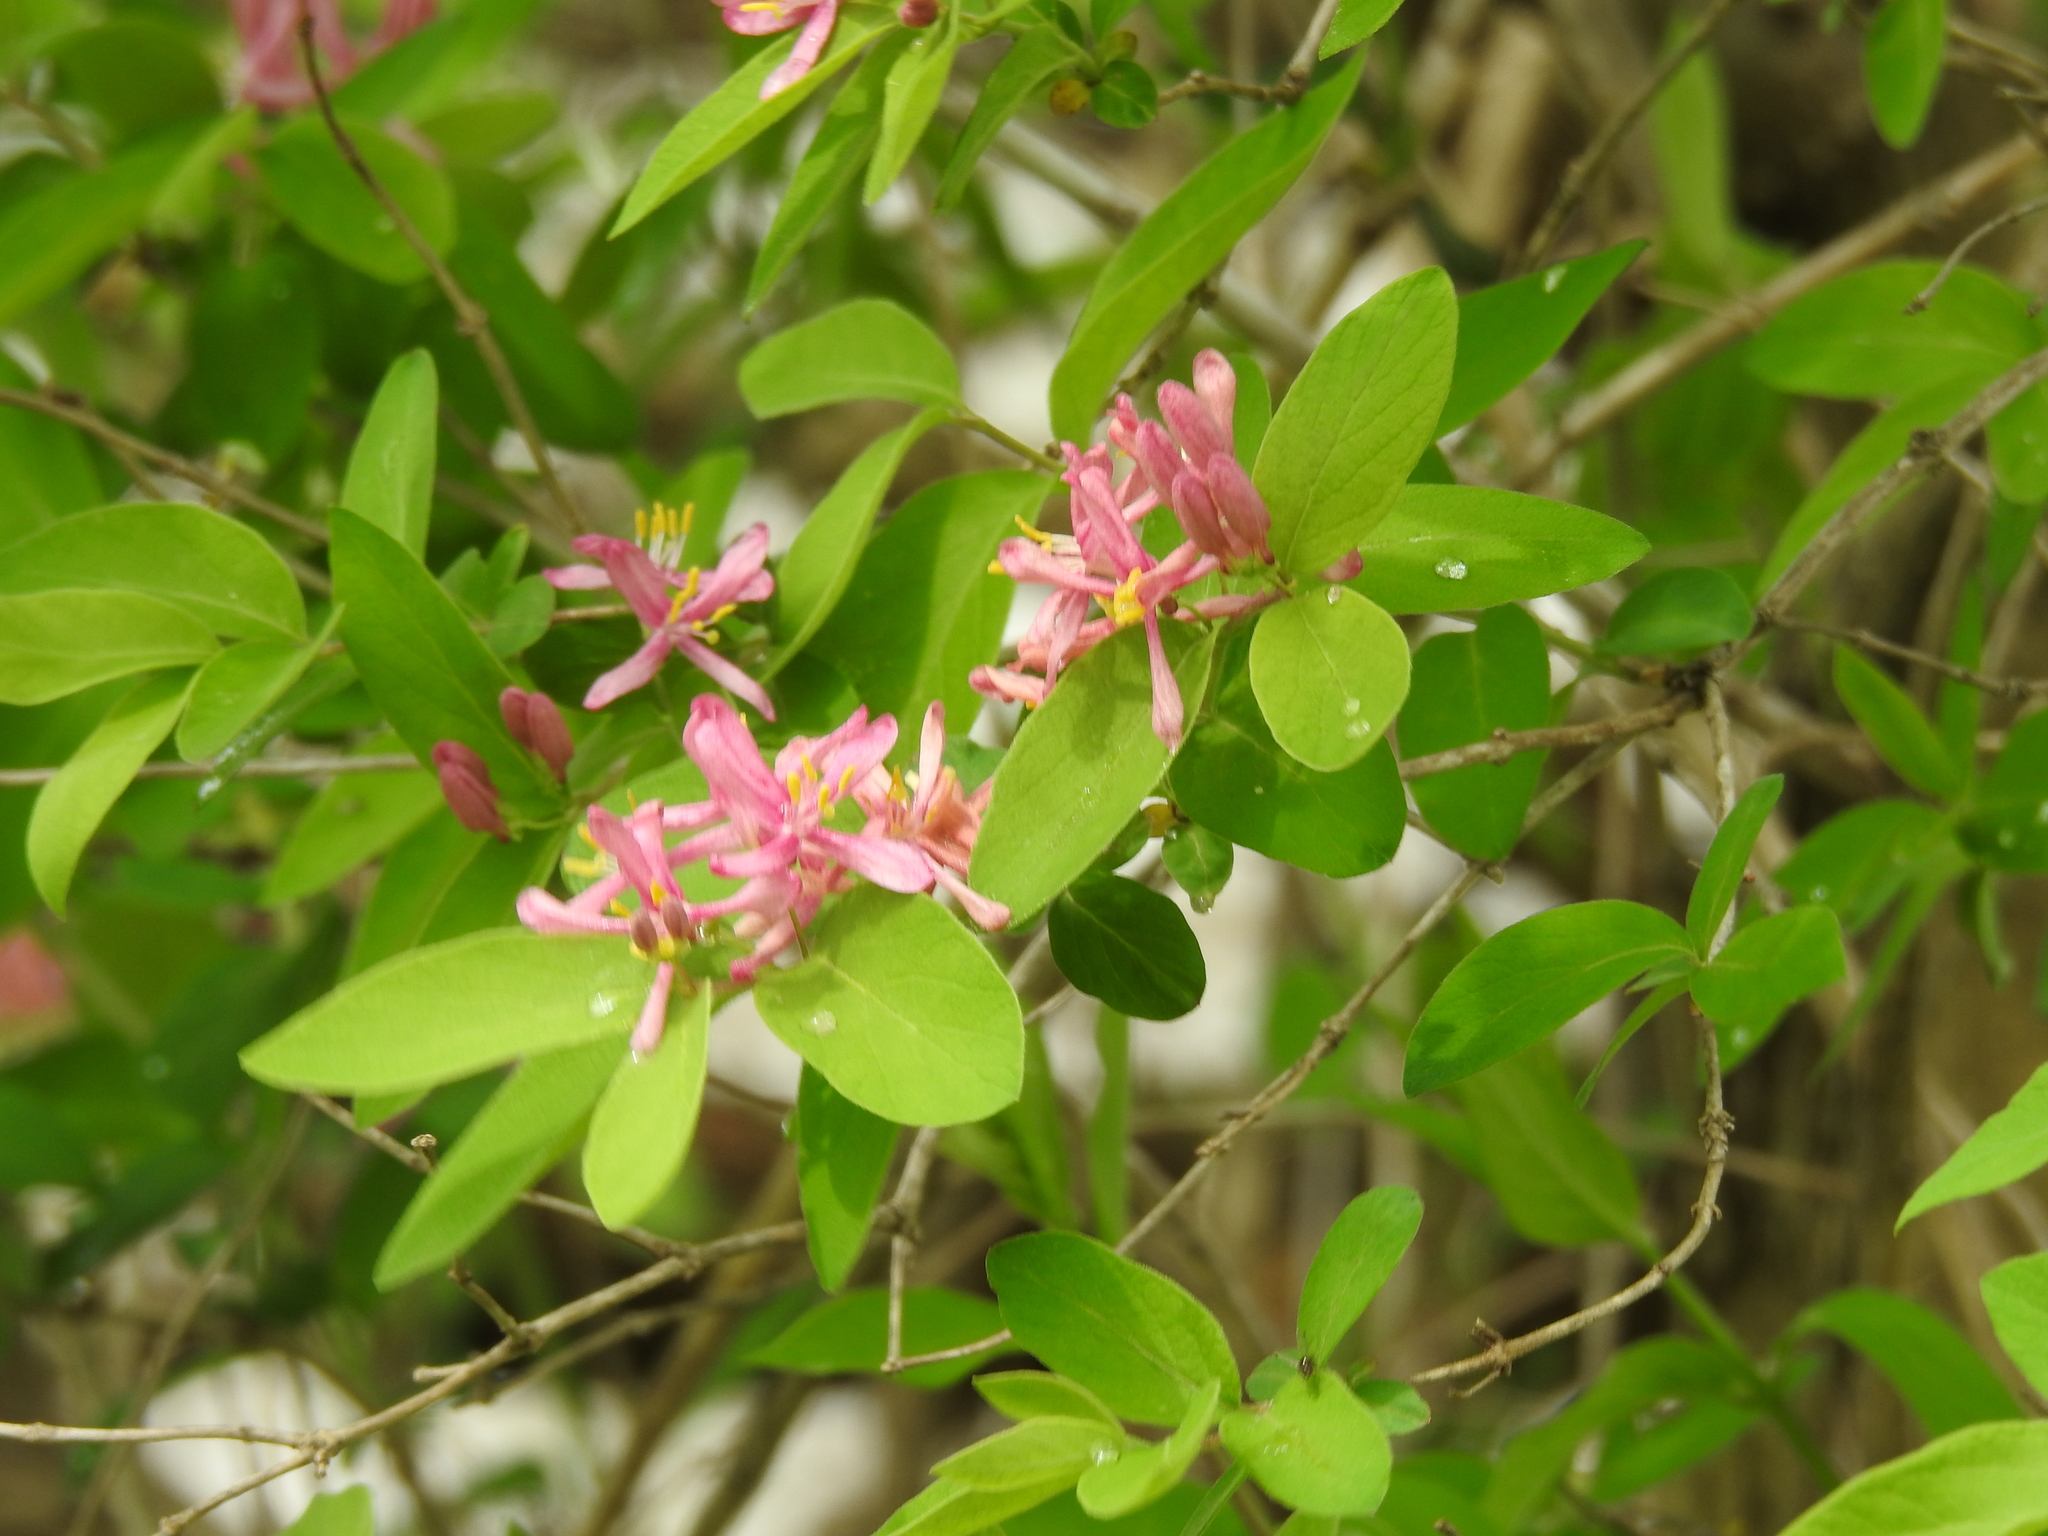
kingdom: Plantae
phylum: Tracheophyta
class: Magnoliopsida
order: Dipsacales
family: Caprifoliaceae
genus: Lonicera
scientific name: Lonicera tatarica
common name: Tatarian honeysuckle
